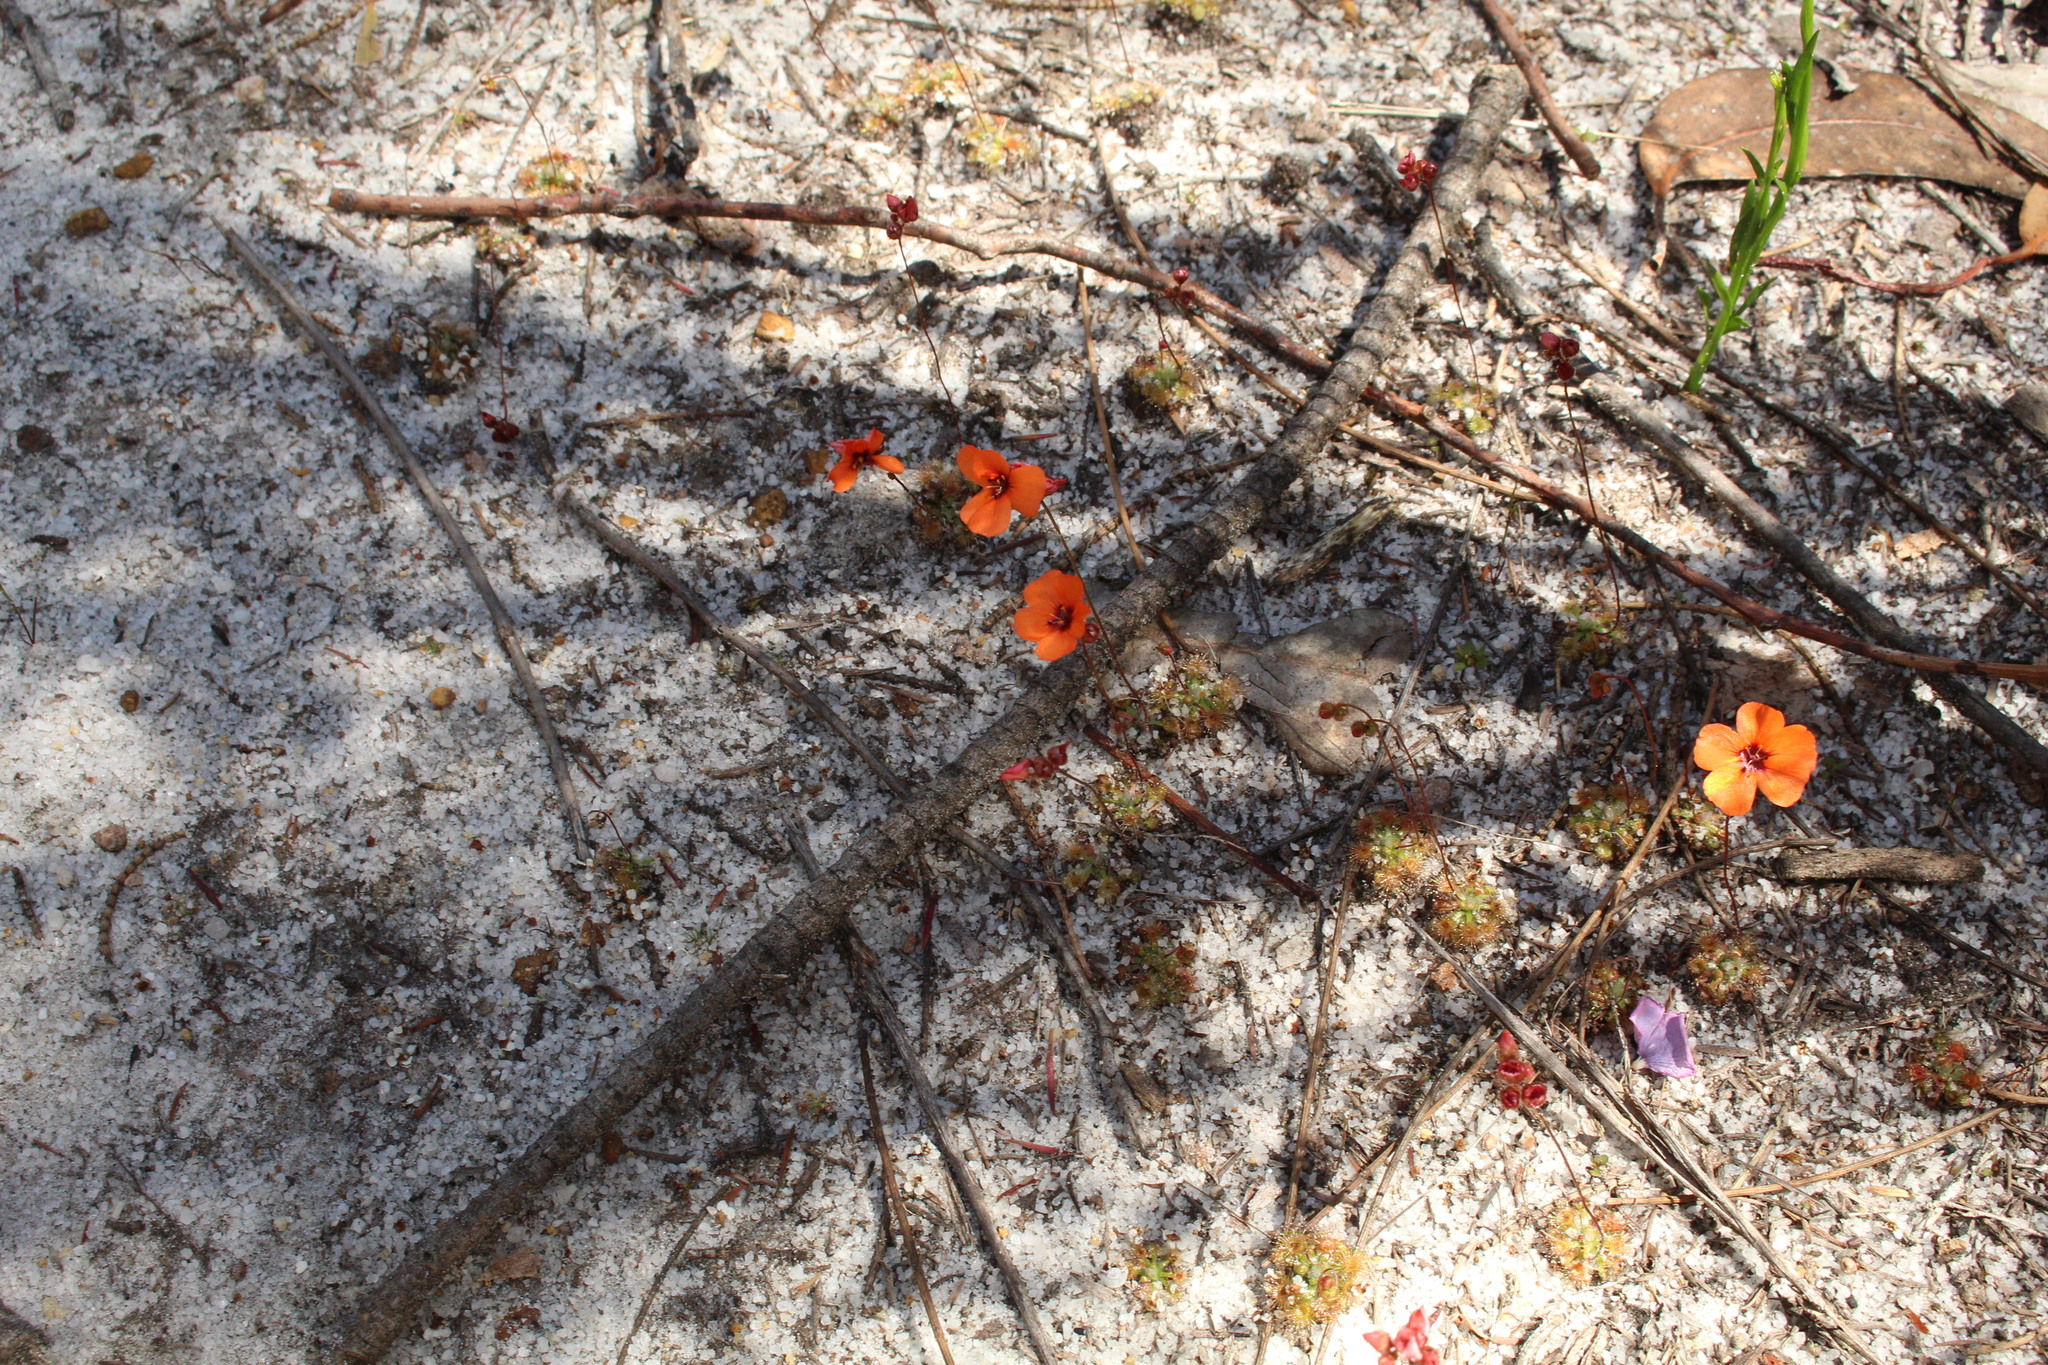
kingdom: Plantae
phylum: Tracheophyta
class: Magnoliopsida
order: Caryophyllales
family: Droseraceae
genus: Drosera
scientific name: Drosera platystigma
